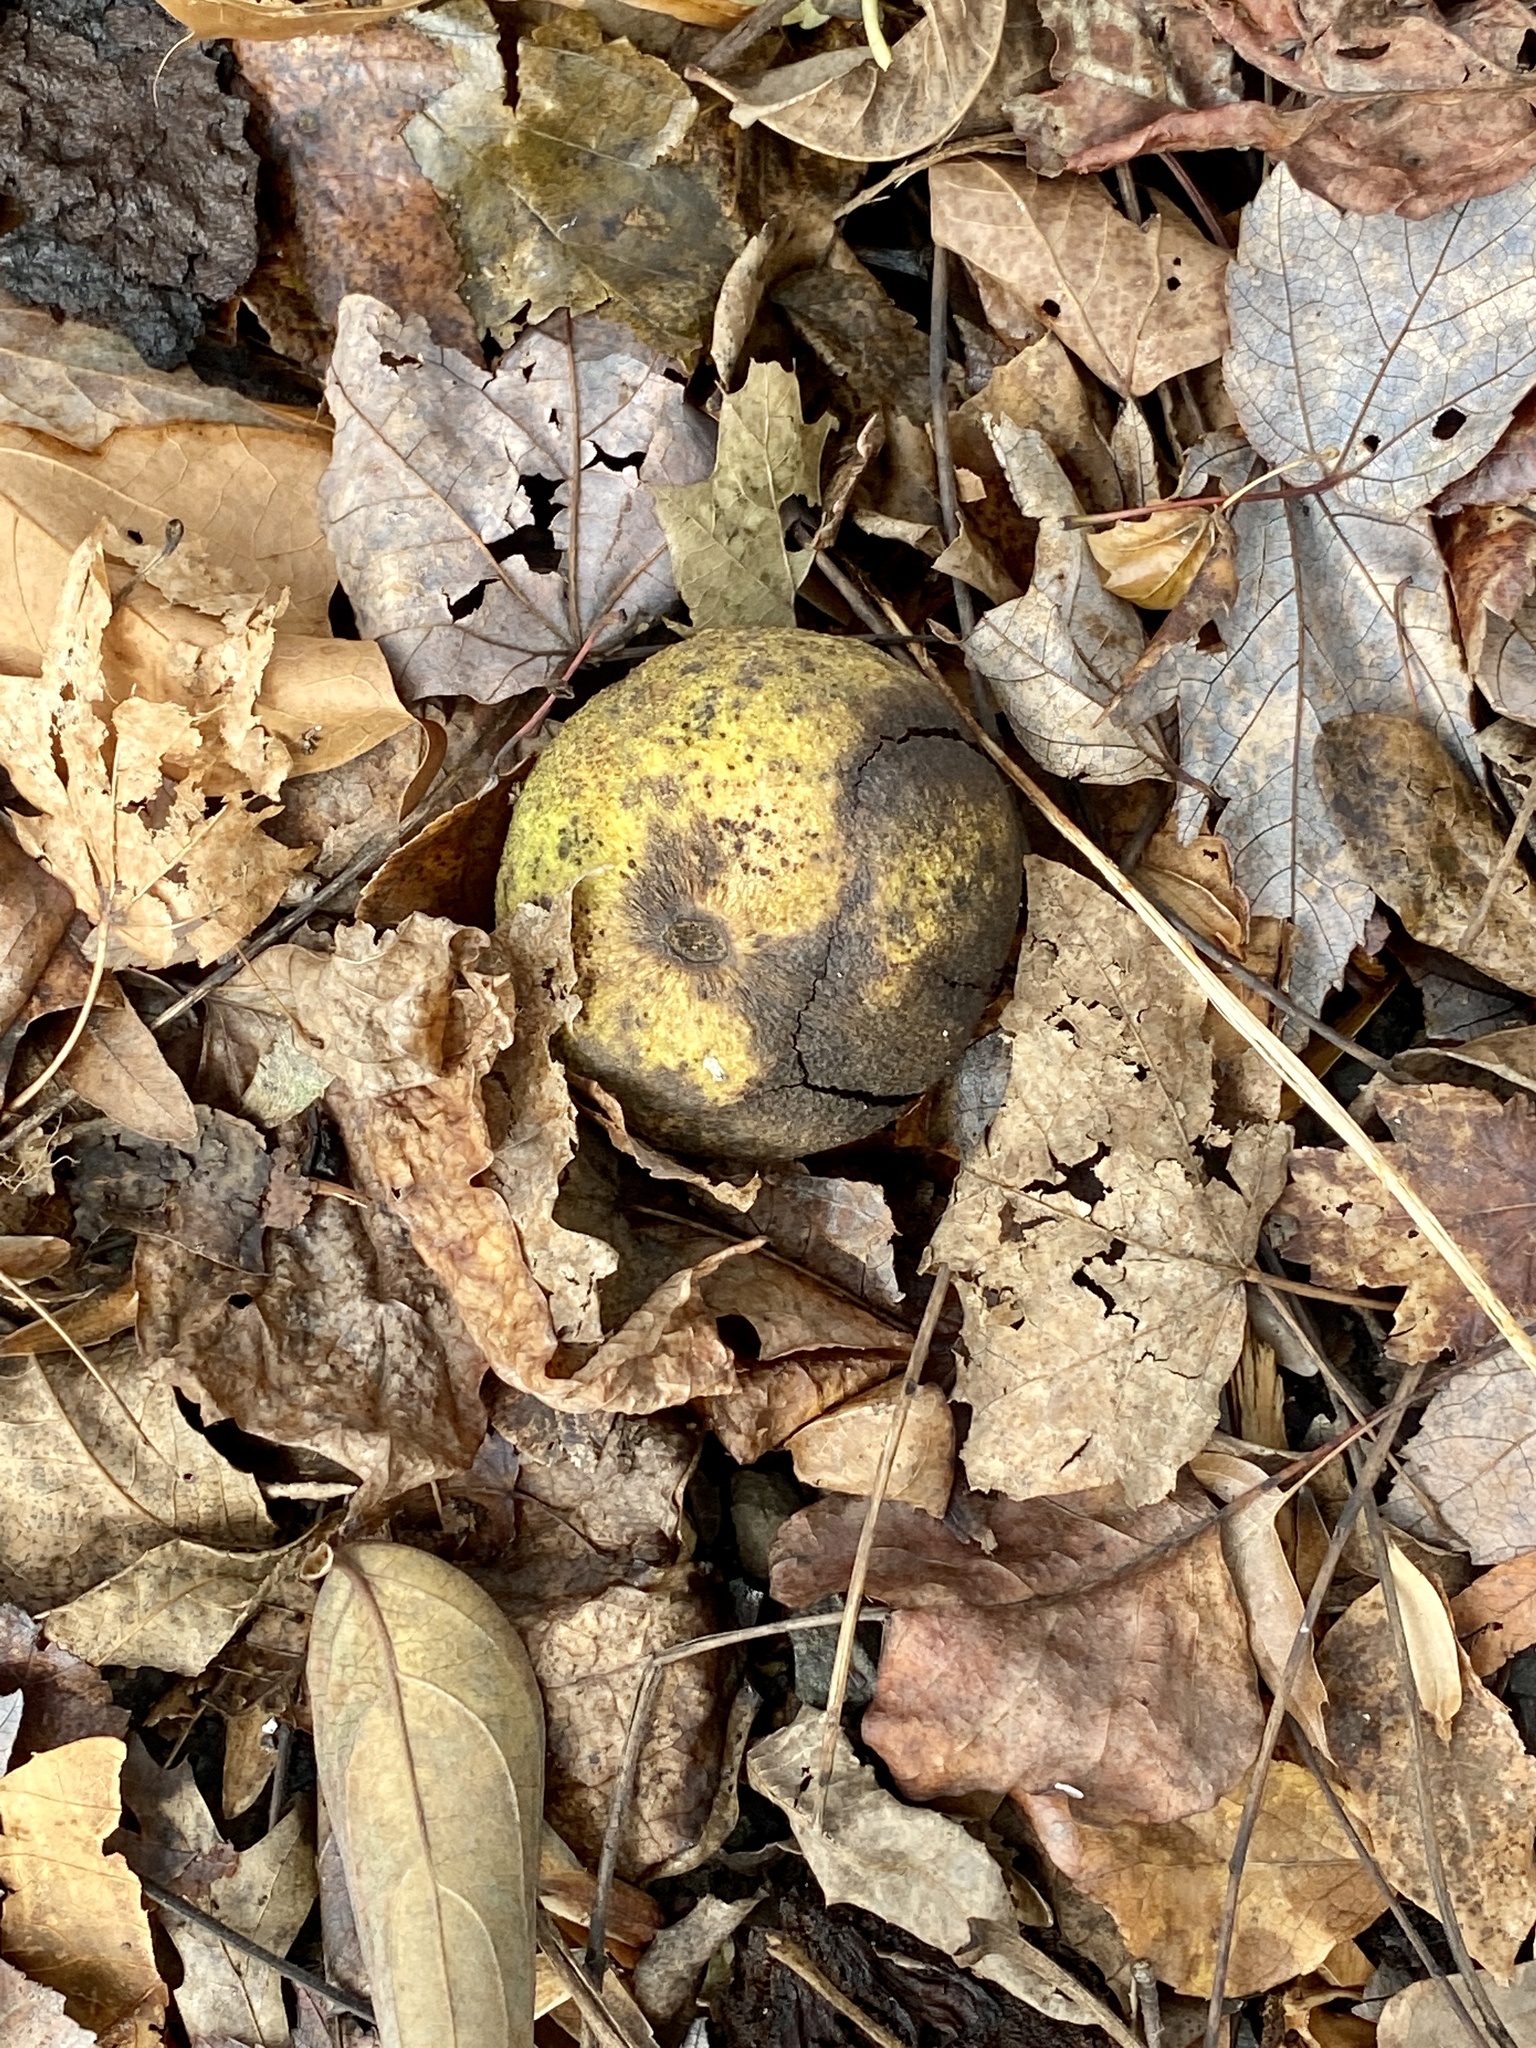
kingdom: Plantae
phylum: Tracheophyta
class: Magnoliopsida
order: Fagales
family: Juglandaceae
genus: Juglans
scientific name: Juglans nigra
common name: Black walnut
